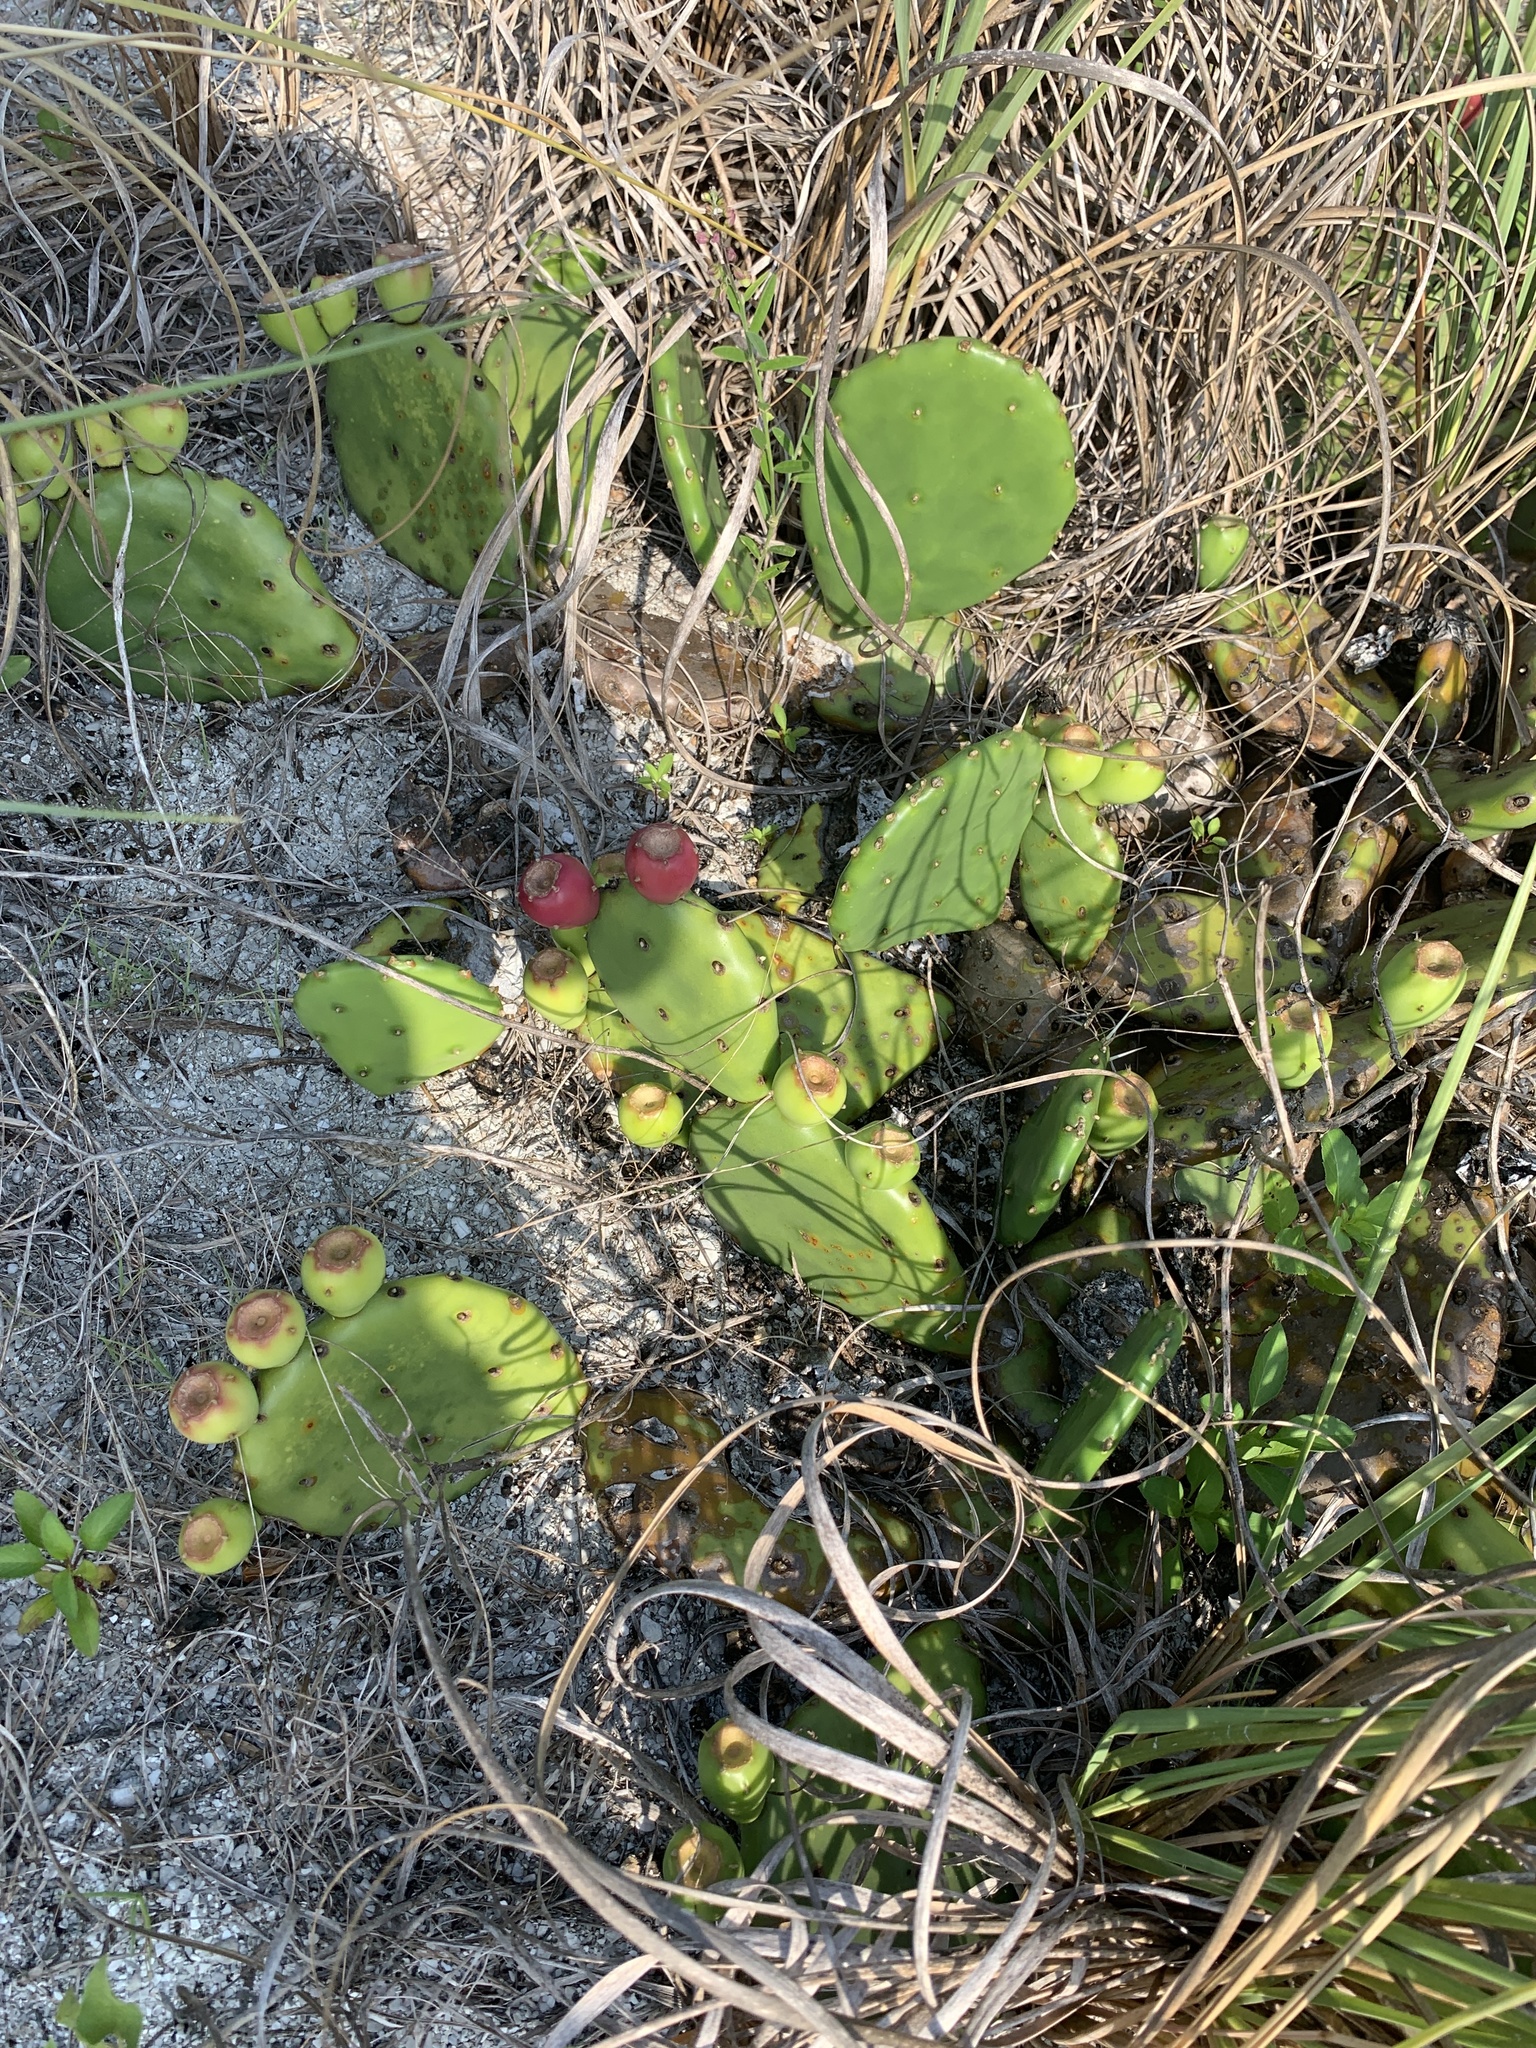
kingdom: Plantae
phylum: Tracheophyta
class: Magnoliopsida
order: Caryophyllales
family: Cactaceae
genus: Opuntia
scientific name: Opuntia humifusa
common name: Eastern prickly-pear
